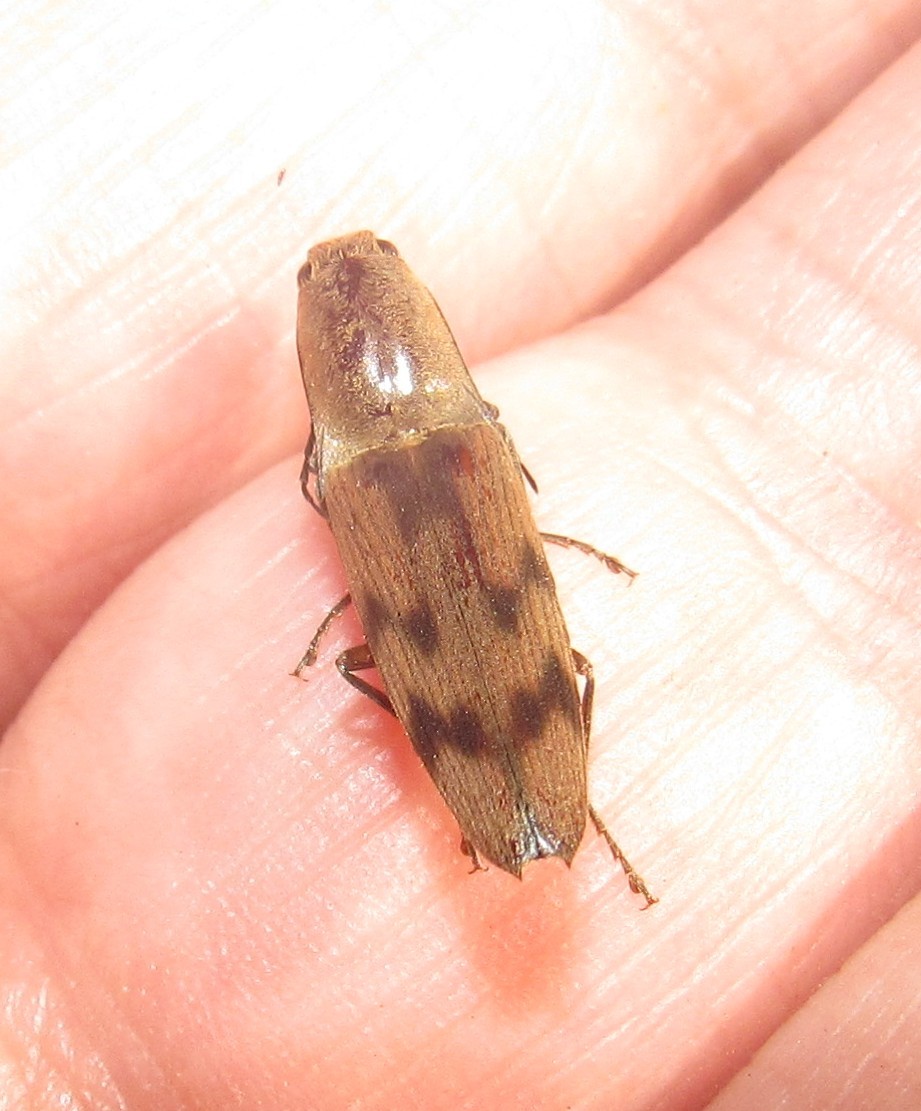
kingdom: Animalia
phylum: Arthropoda
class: Insecta
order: Coleoptera
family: Elateridae
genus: Monocrepidius
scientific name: Monocrepidius
